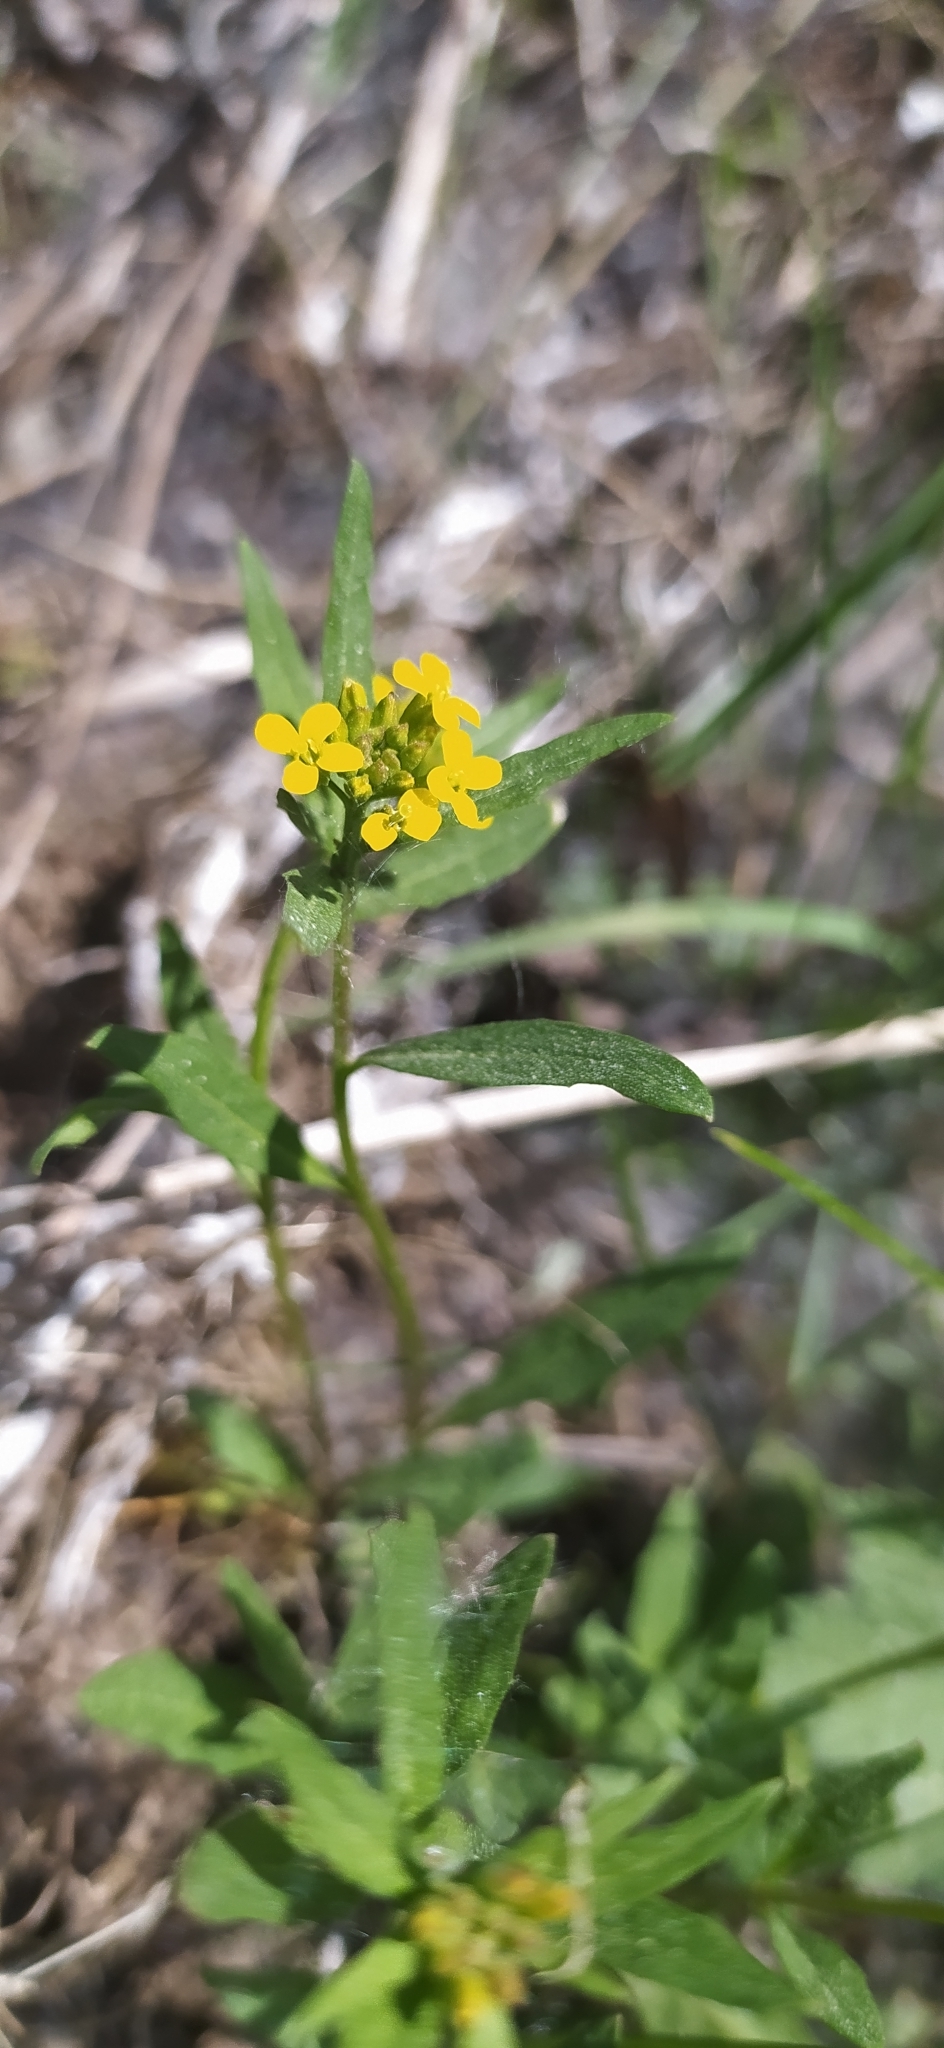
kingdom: Plantae
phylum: Tracheophyta
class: Magnoliopsida
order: Brassicales
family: Brassicaceae
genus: Erysimum
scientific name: Erysimum marschallianum
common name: Hard wallflower
